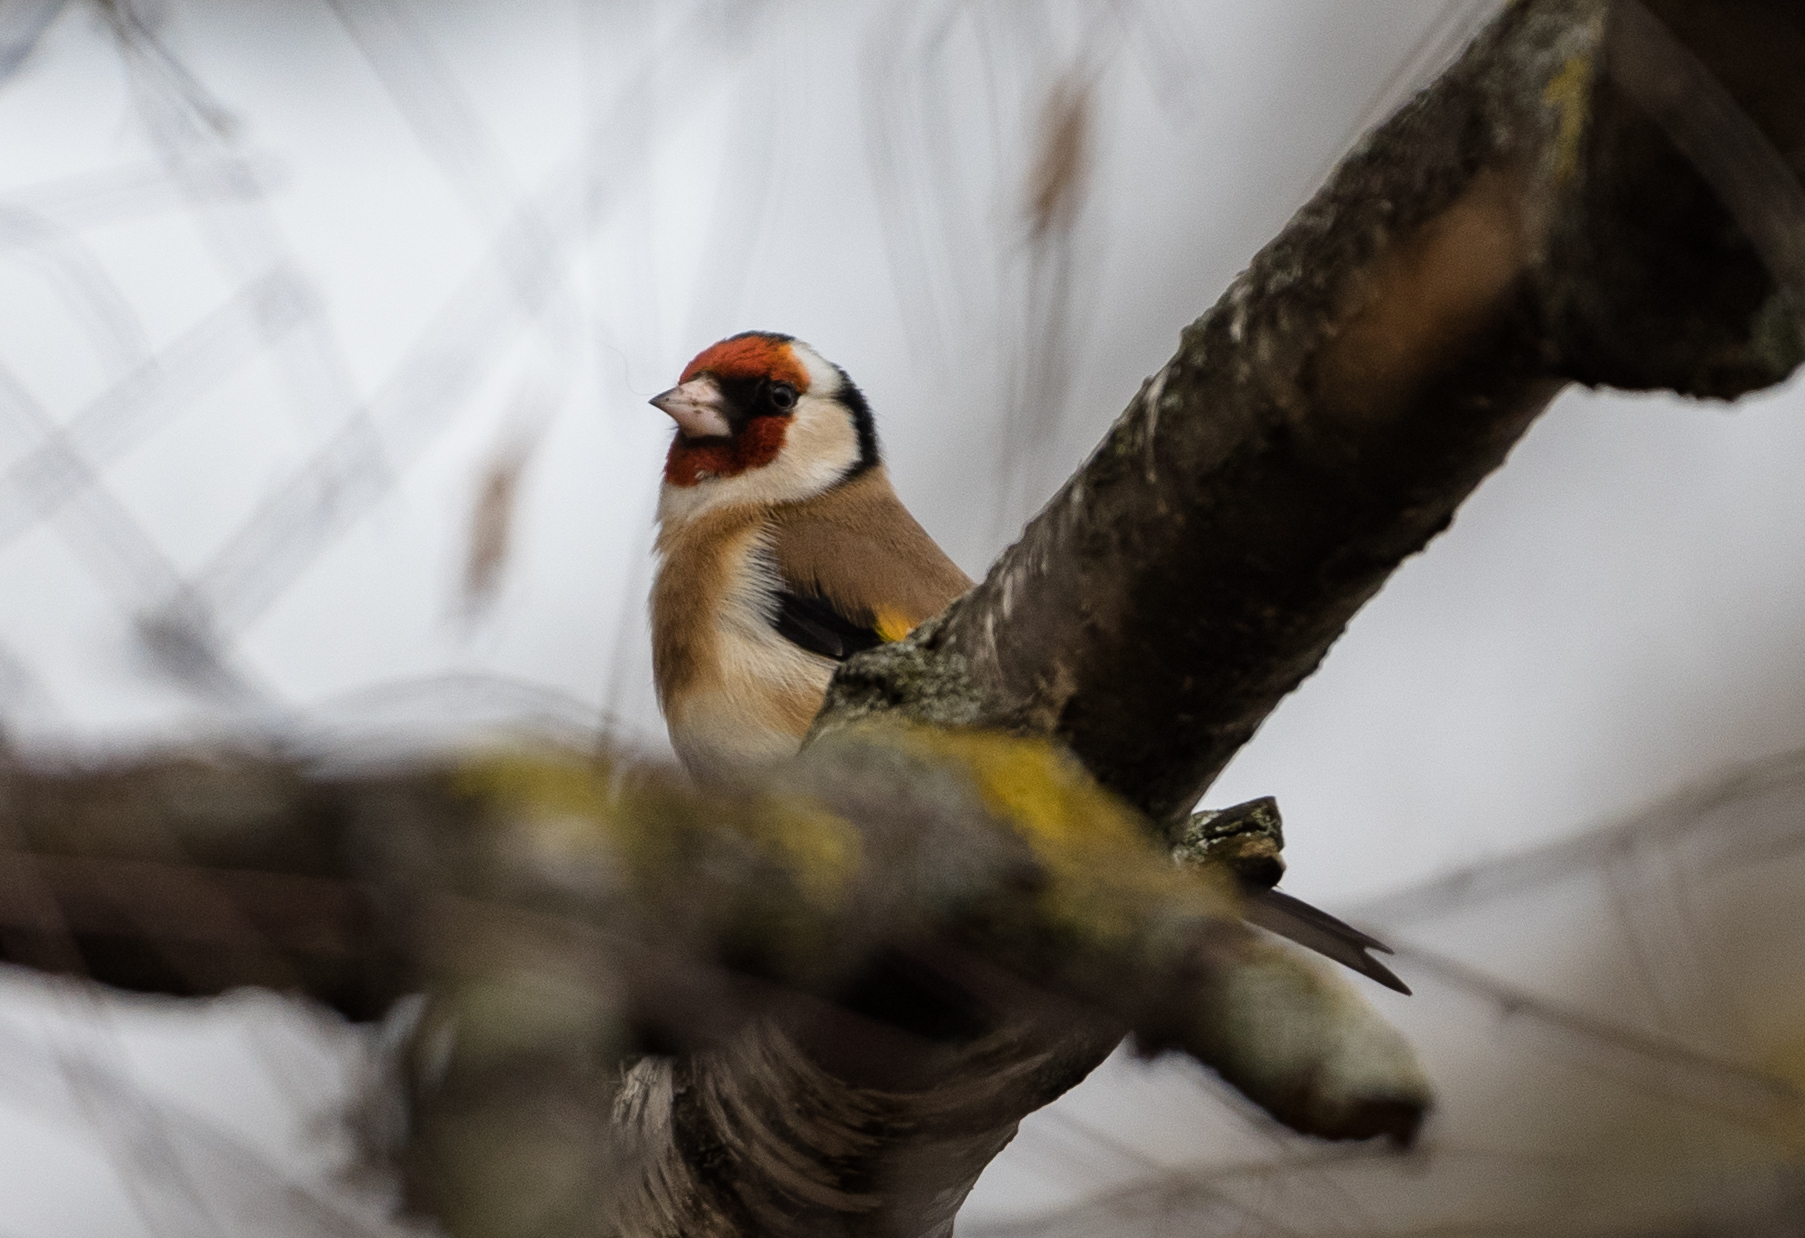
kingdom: Animalia
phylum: Chordata
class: Aves
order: Passeriformes
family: Fringillidae
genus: Carduelis
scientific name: Carduelis carduelis
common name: European goldfinch
